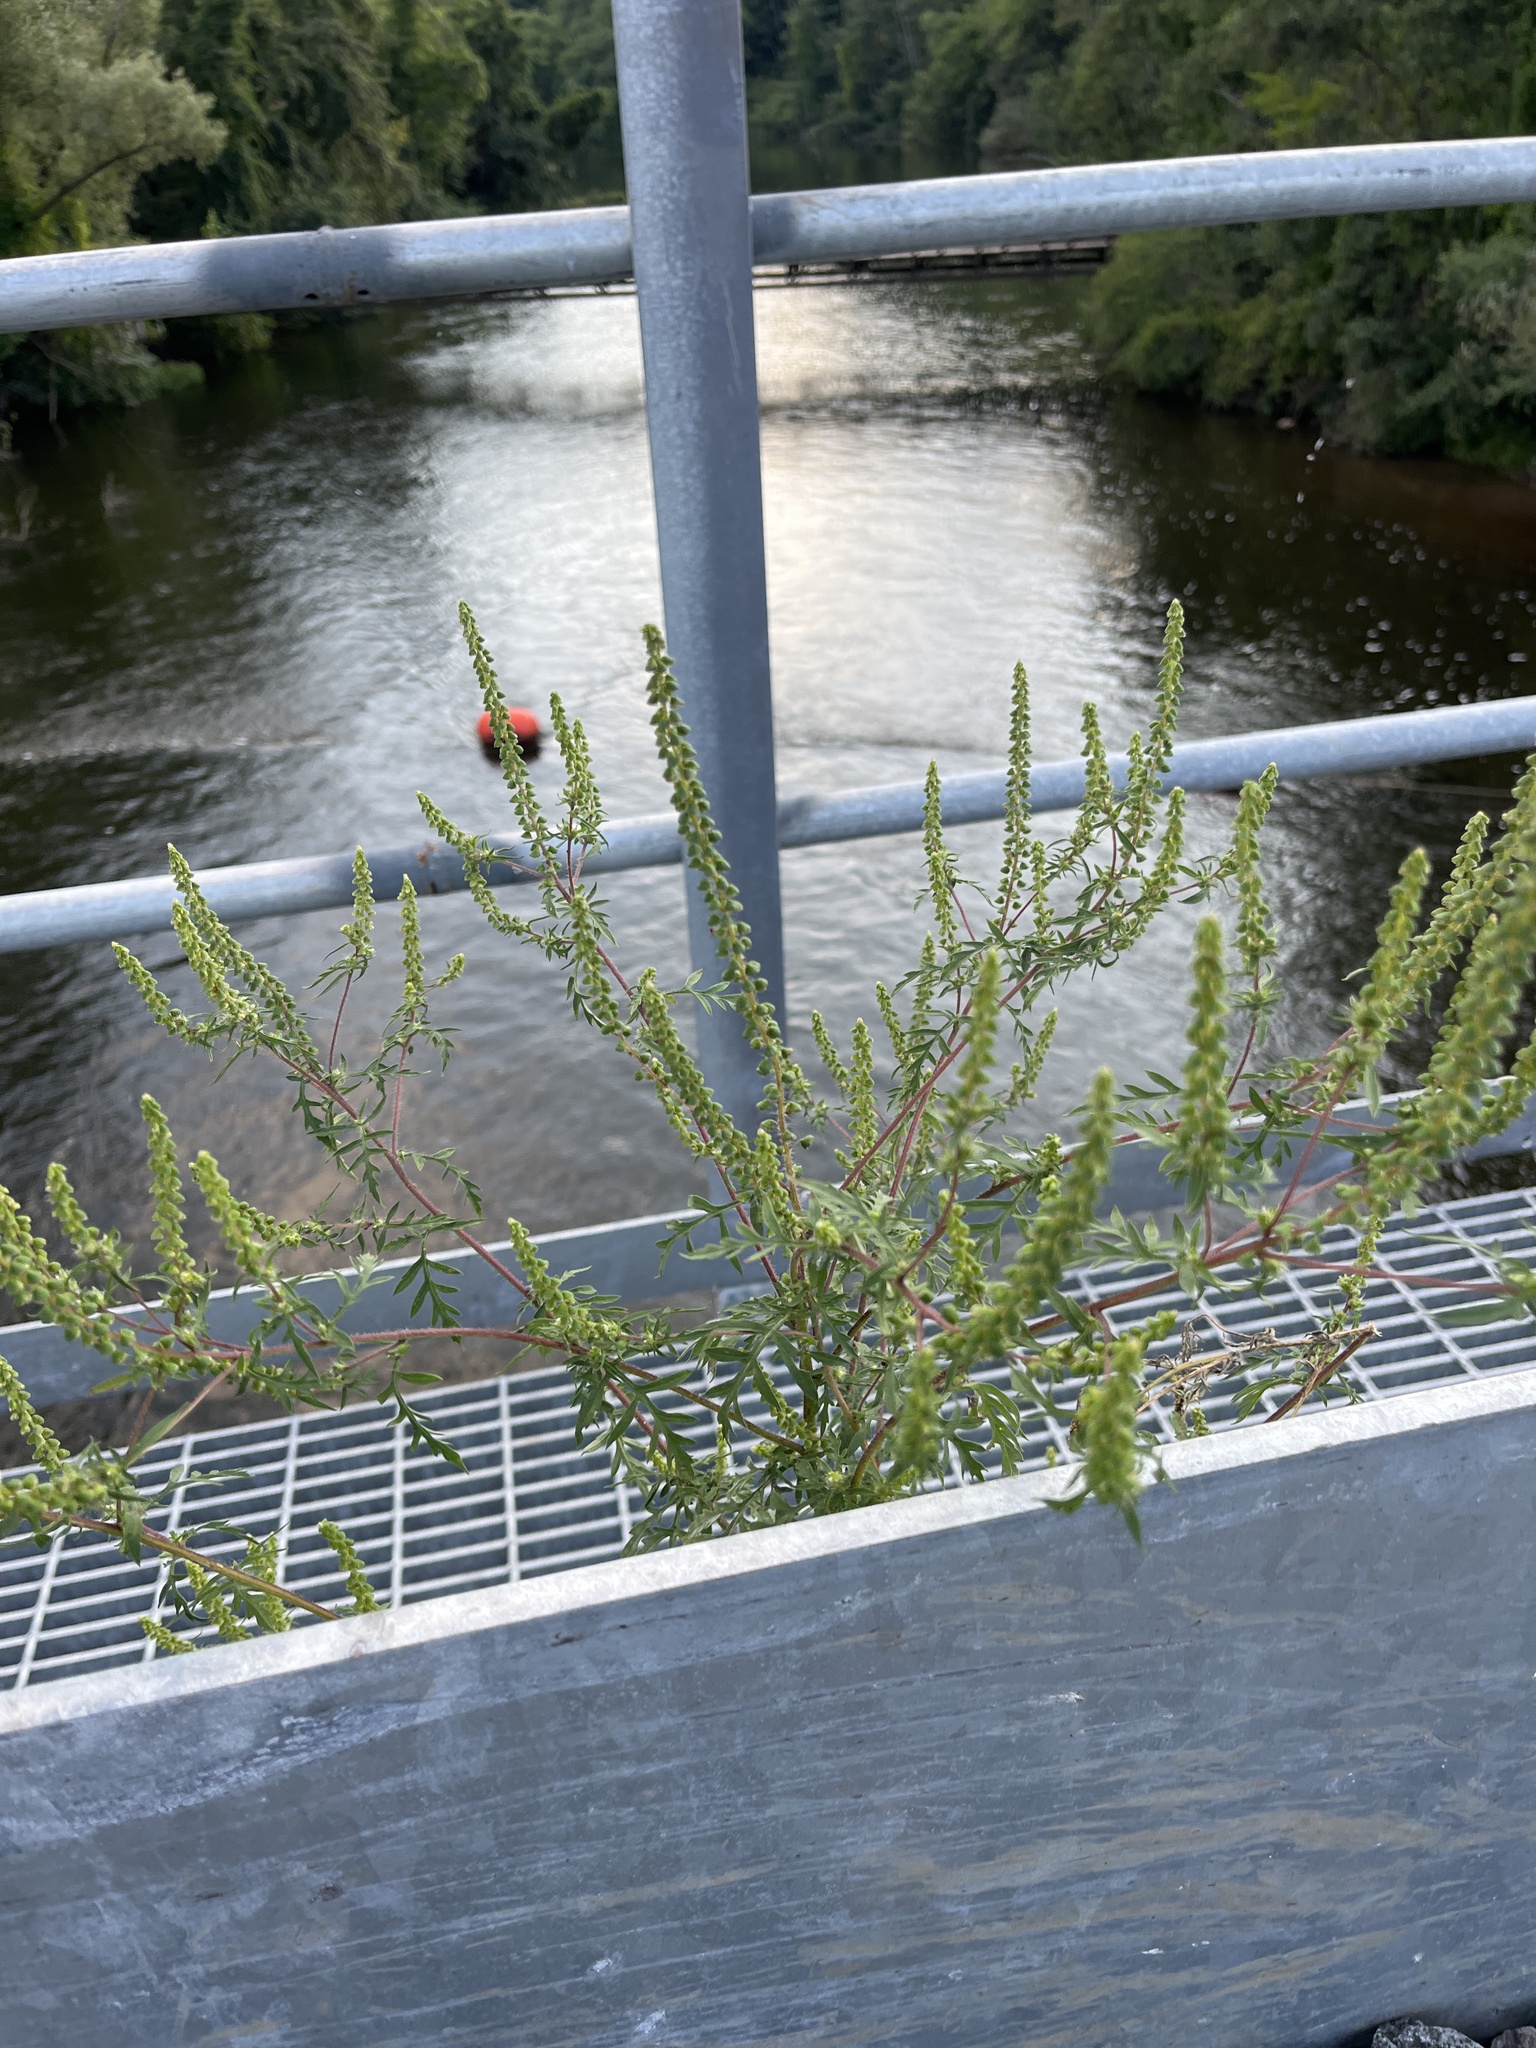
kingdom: Plantae
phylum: Tracheophyta
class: Magnoliopsida
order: Asterales
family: Asteraceae
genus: Ambrosia
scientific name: Ambrosia artemisiifolia
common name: Annual ragweed
